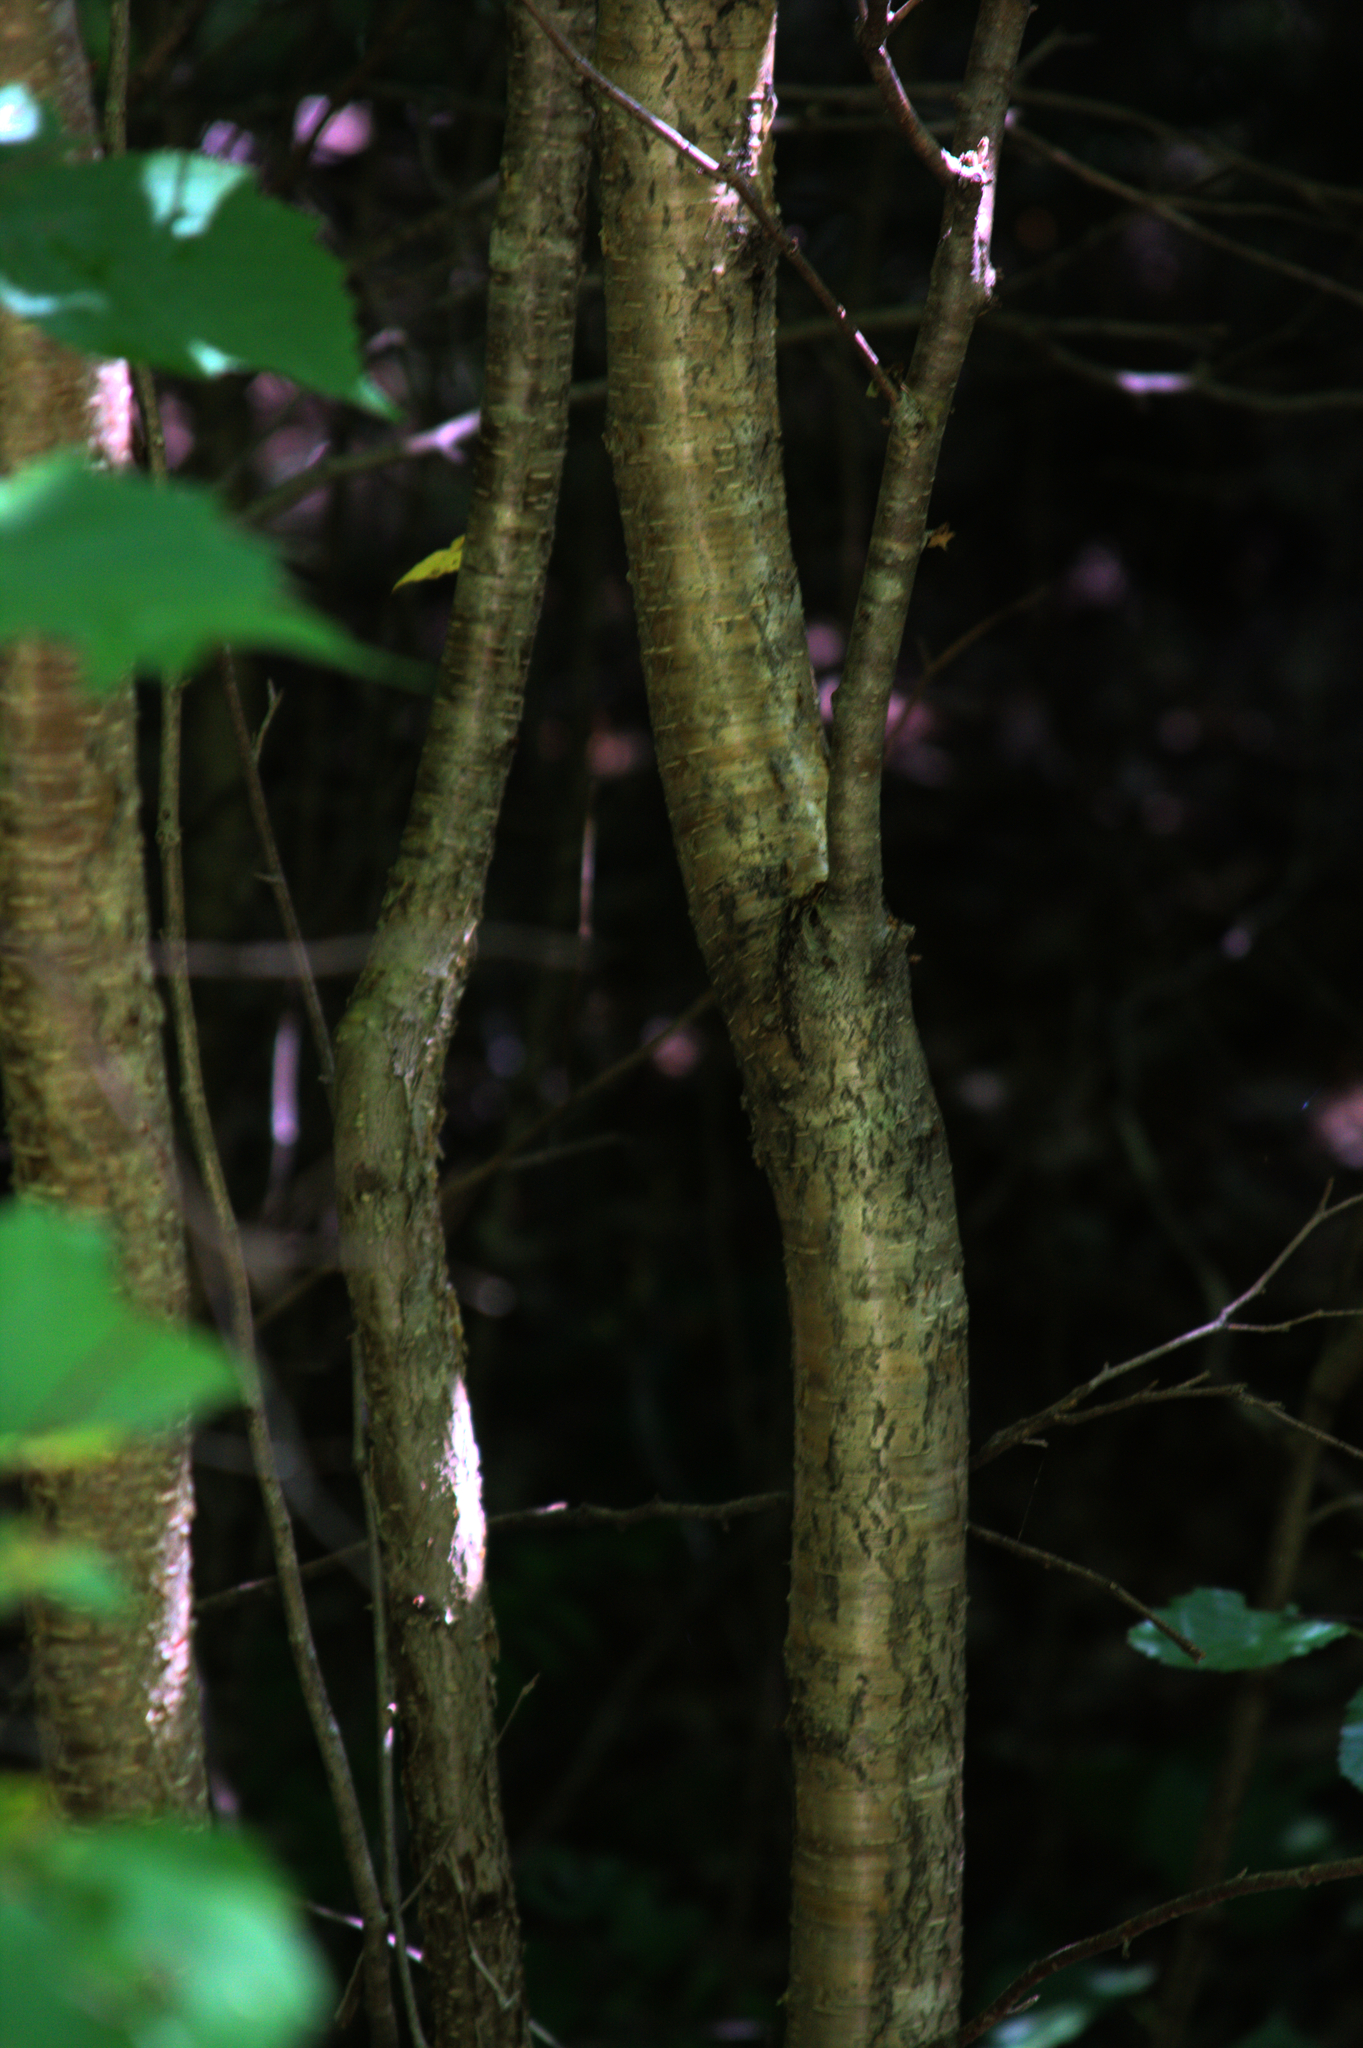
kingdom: Plantae
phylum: Tracheophyta
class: Magnoliopsida
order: Fagales
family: Betulaceae
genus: Betula
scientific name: Betula alleghaniensis
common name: Yellow birch
